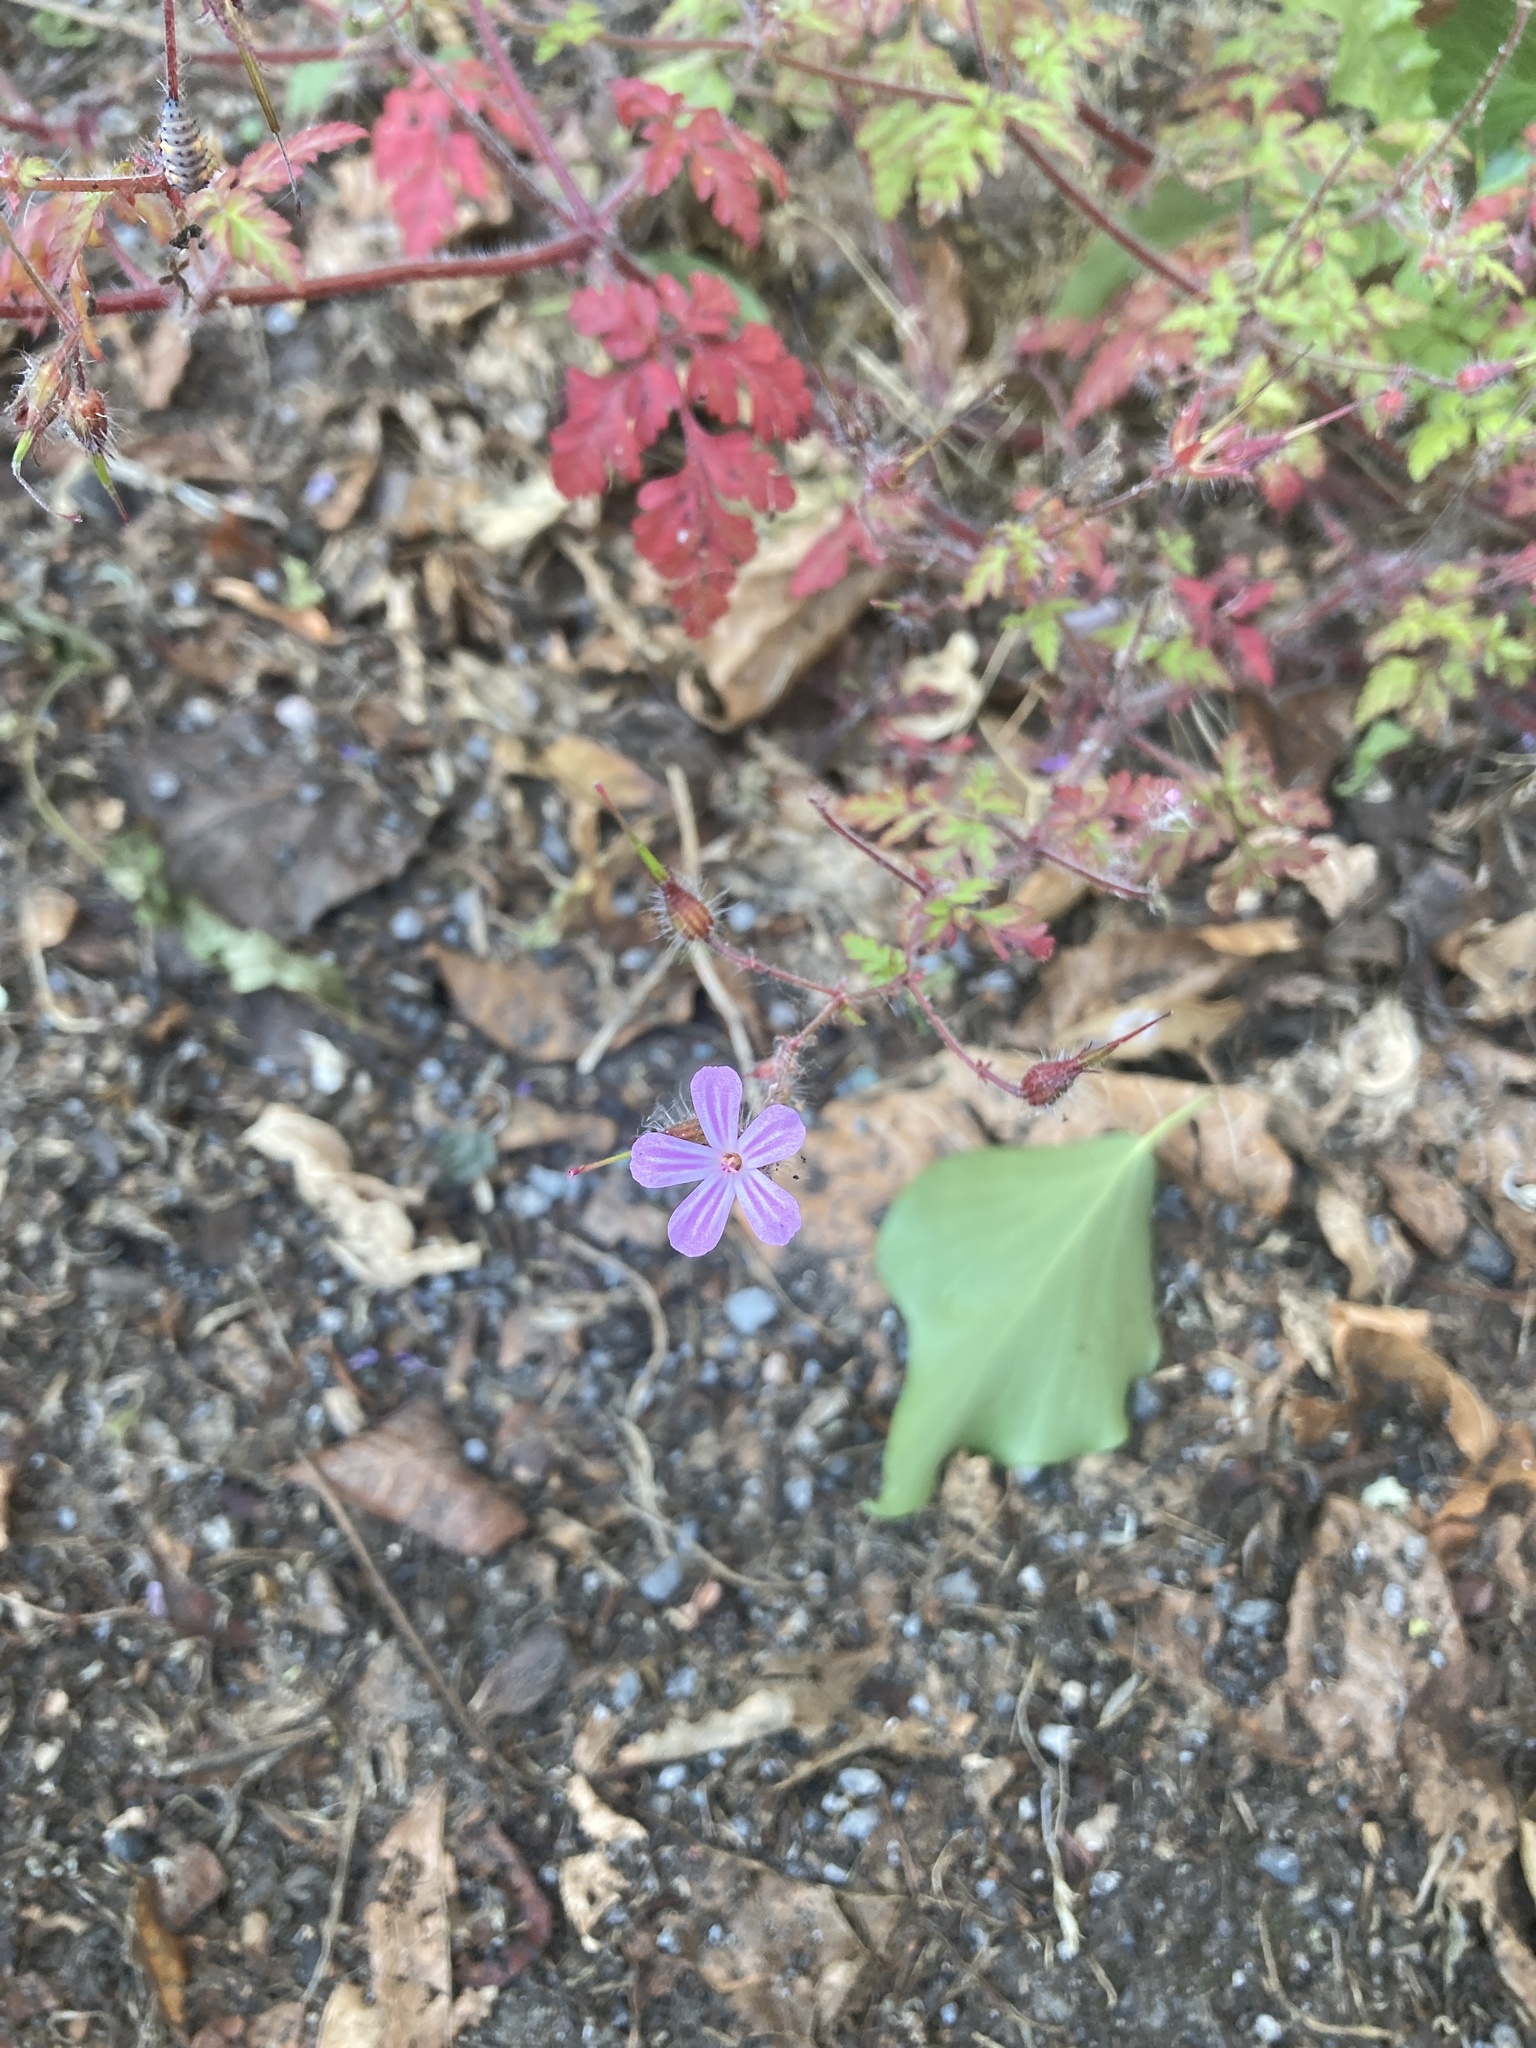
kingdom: Plantae
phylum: Tracheophyta
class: Magnoliopsida
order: Geraniales
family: Geraniaceae
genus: Geranium
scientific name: Geranium robertianum
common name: Herb-robert
